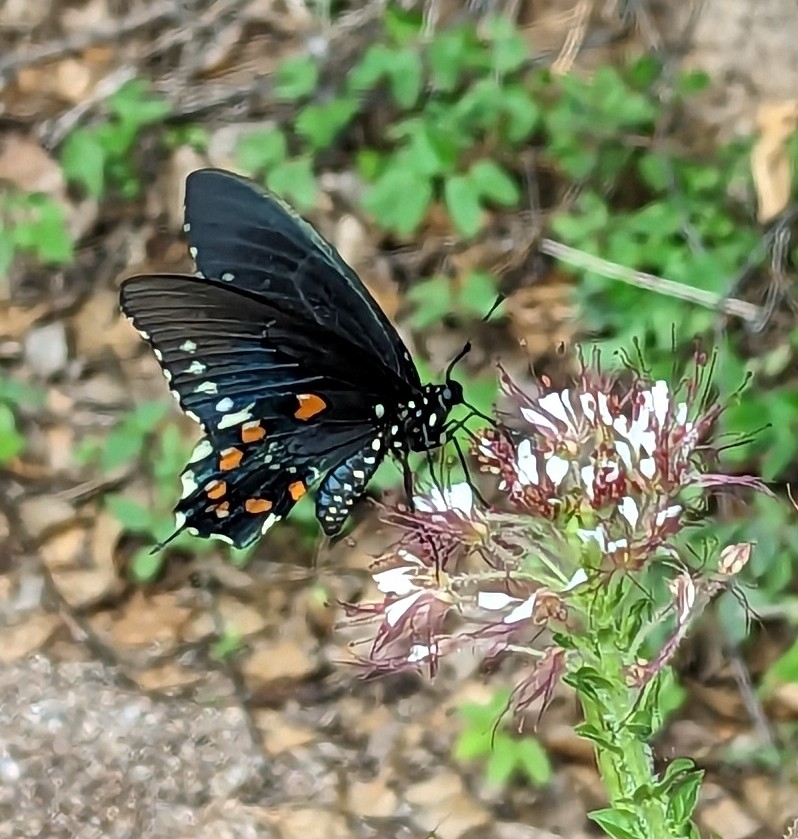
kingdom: Animalia
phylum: Arthropoda
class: Insecta
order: Lepidoptera
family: Papilionidae
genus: Battus
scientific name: Battus philenor
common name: Pipevine swallowtail
